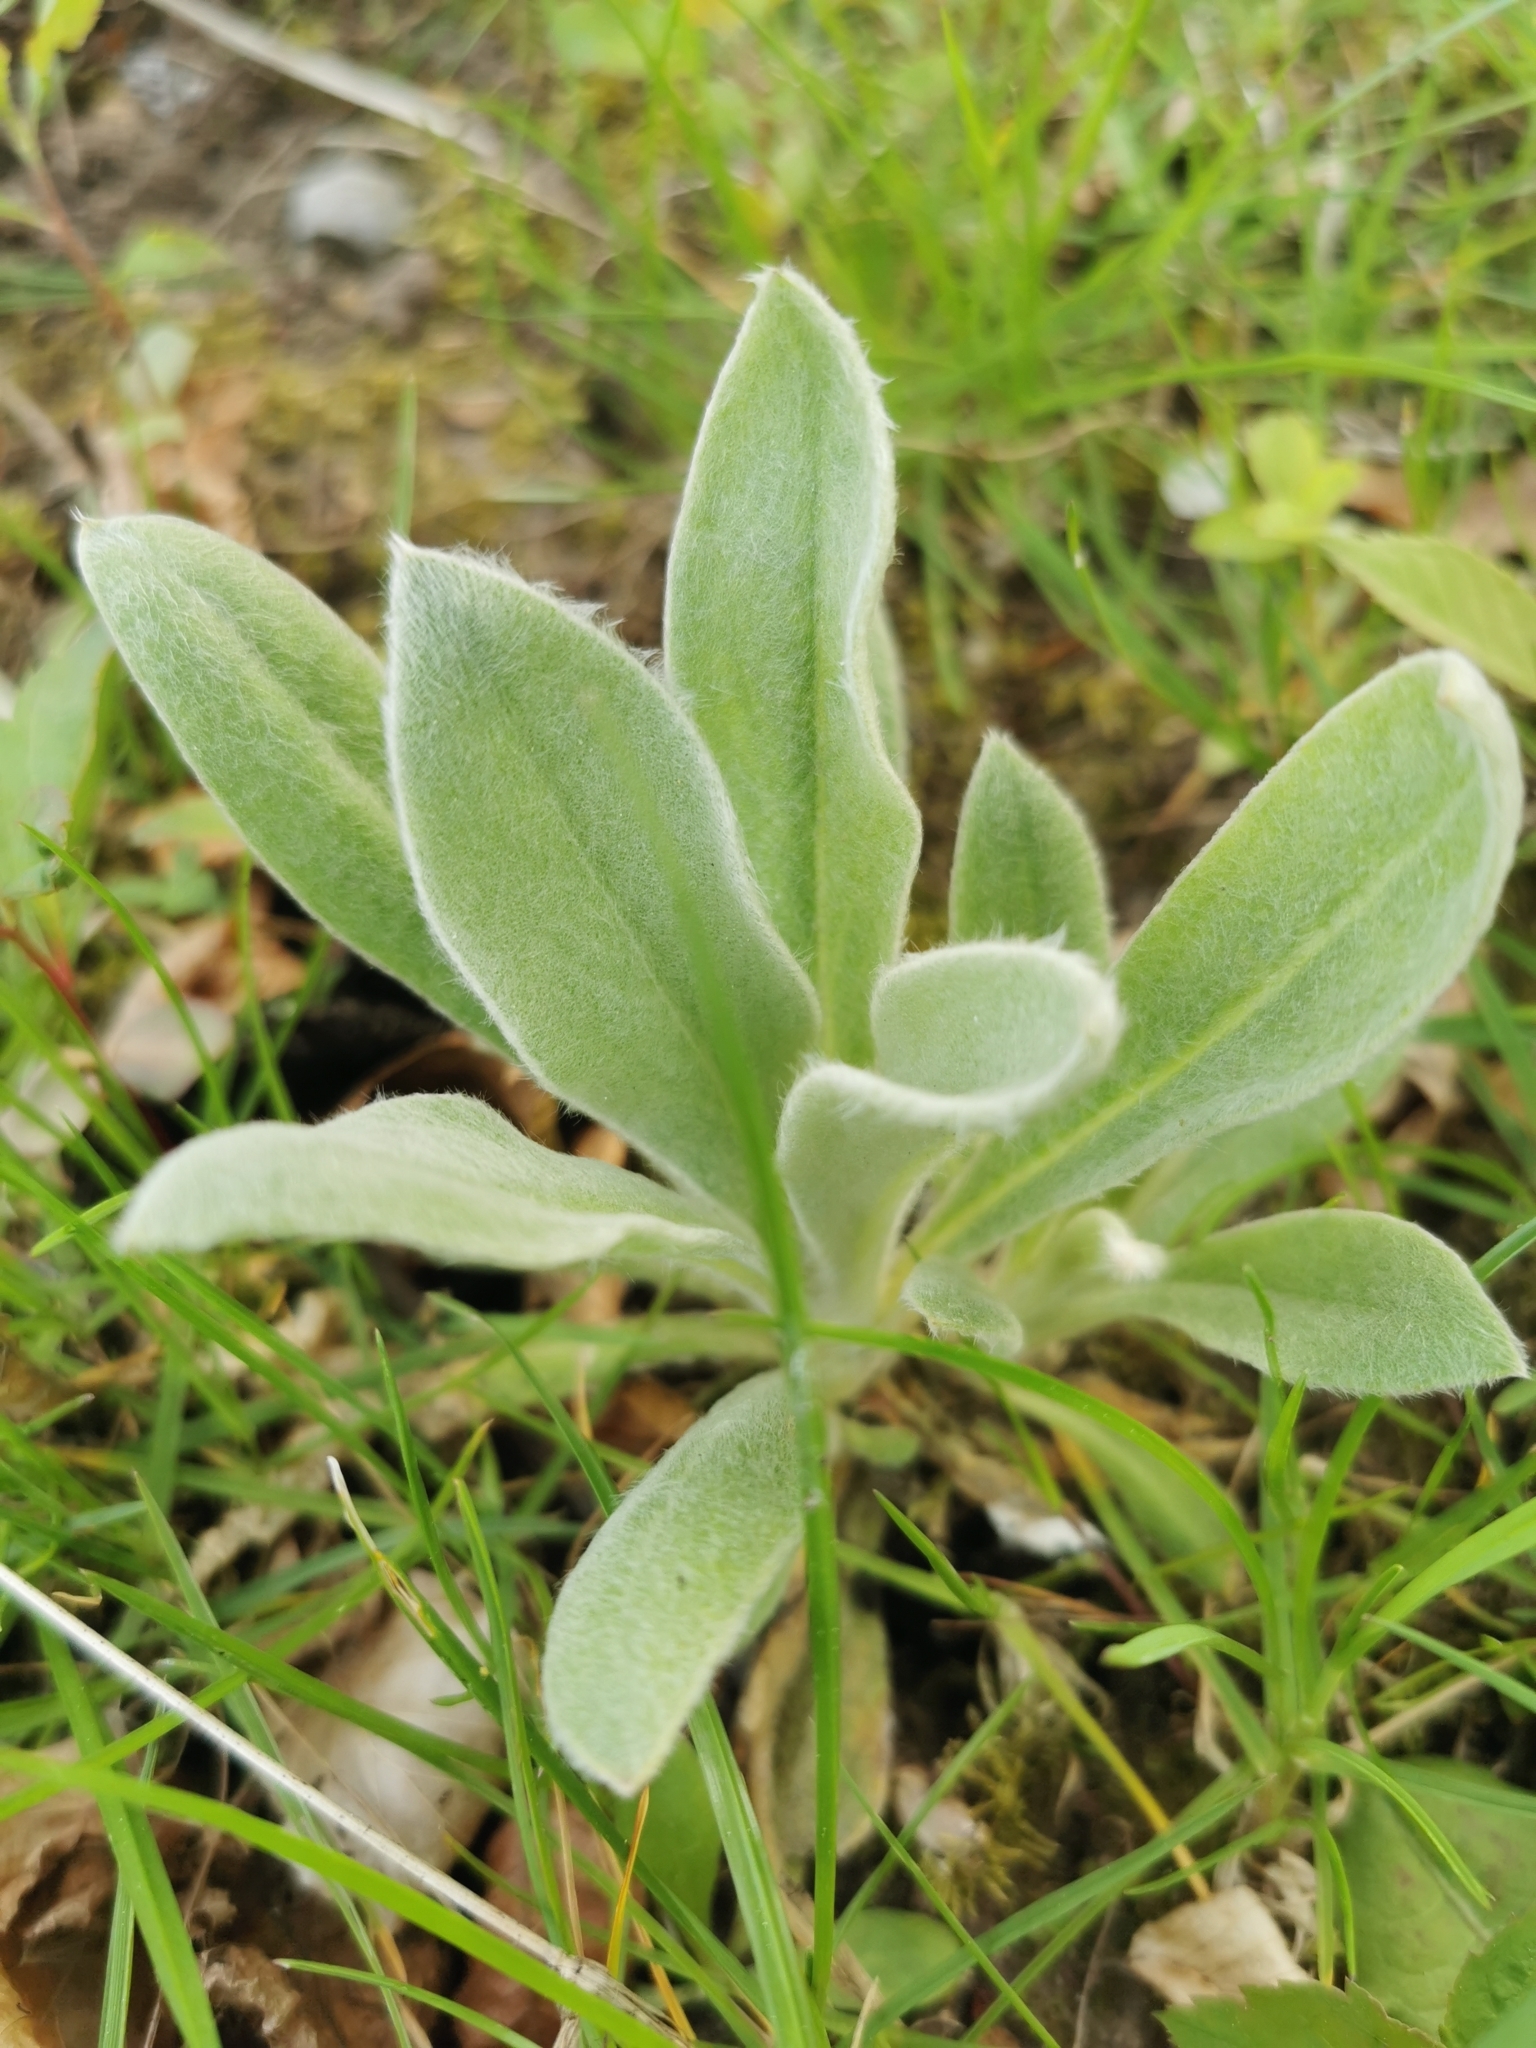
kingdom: Plantae
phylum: Tracheophyta
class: Magnoliopsida
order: Caryophyllales
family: Caryophyllaceae
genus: Silene
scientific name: Silene coronaria
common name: Rose campion
